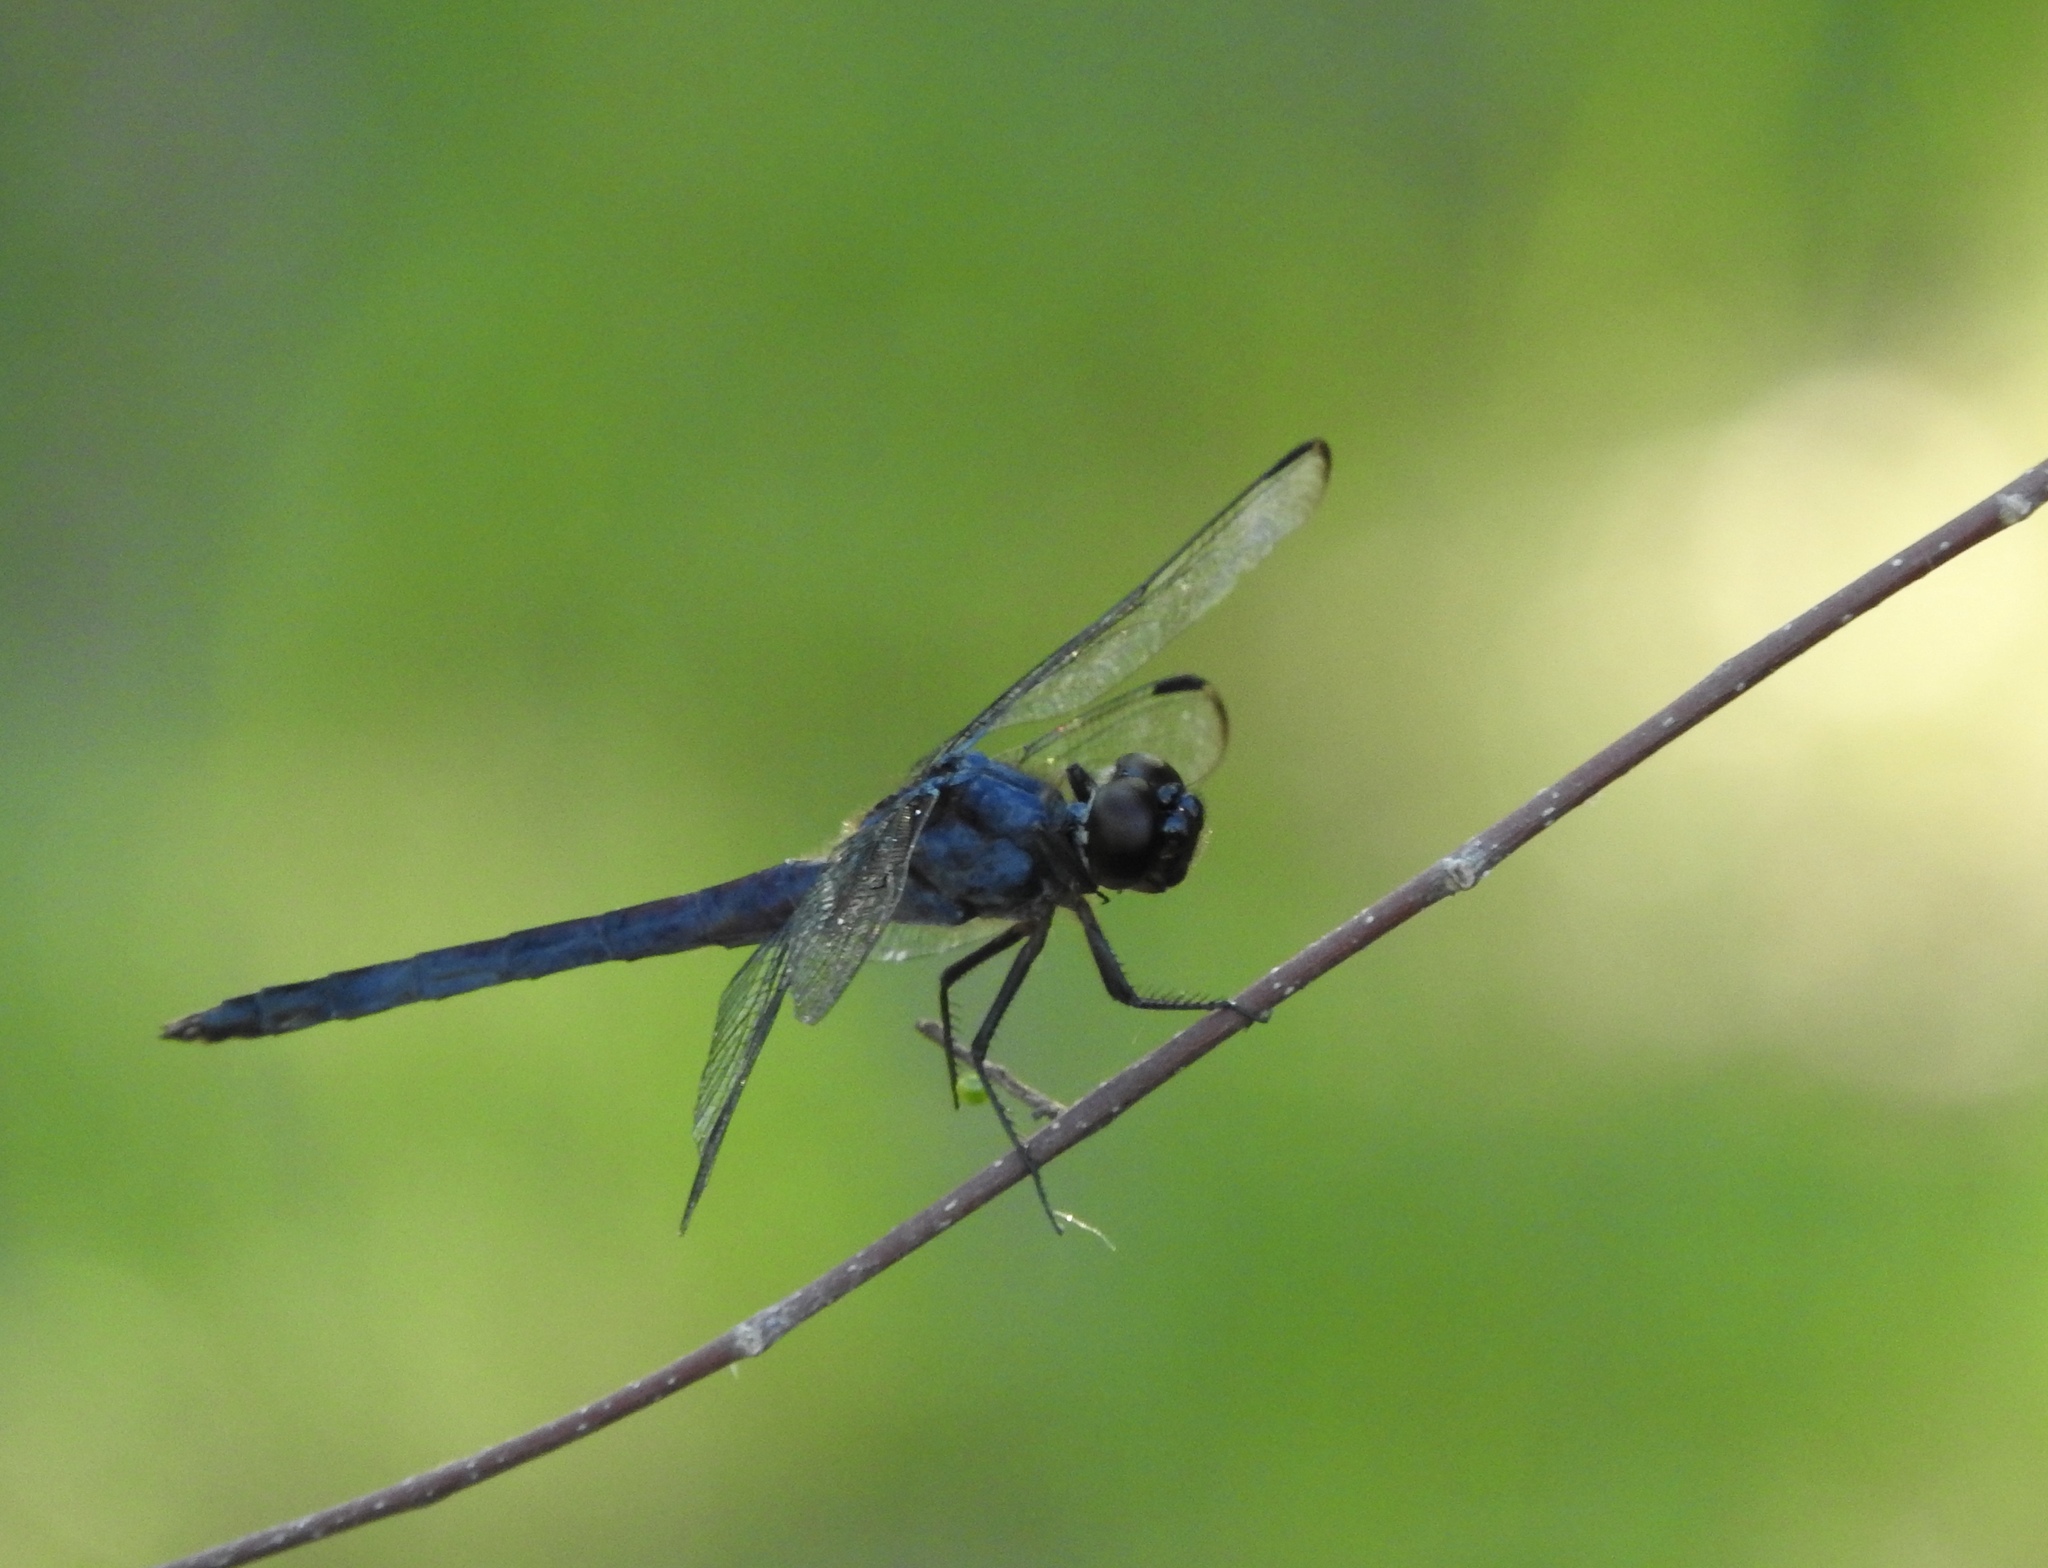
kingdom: Animalia
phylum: Arthropoda
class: Insecta
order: Odonata
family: Libellulidae
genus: Libellula
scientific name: Libellula incesta
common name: Slaty skimmer
